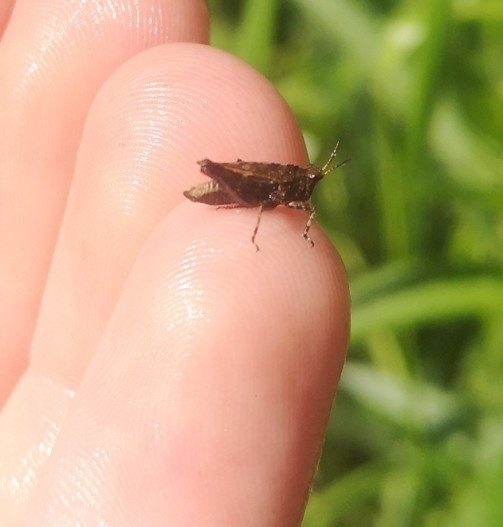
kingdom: Animalia
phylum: Arthropoda
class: Insecta
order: Orthoptera
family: Tetrigidae
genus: Tetrix
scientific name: Tetrix undulata
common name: Common groundhopper
